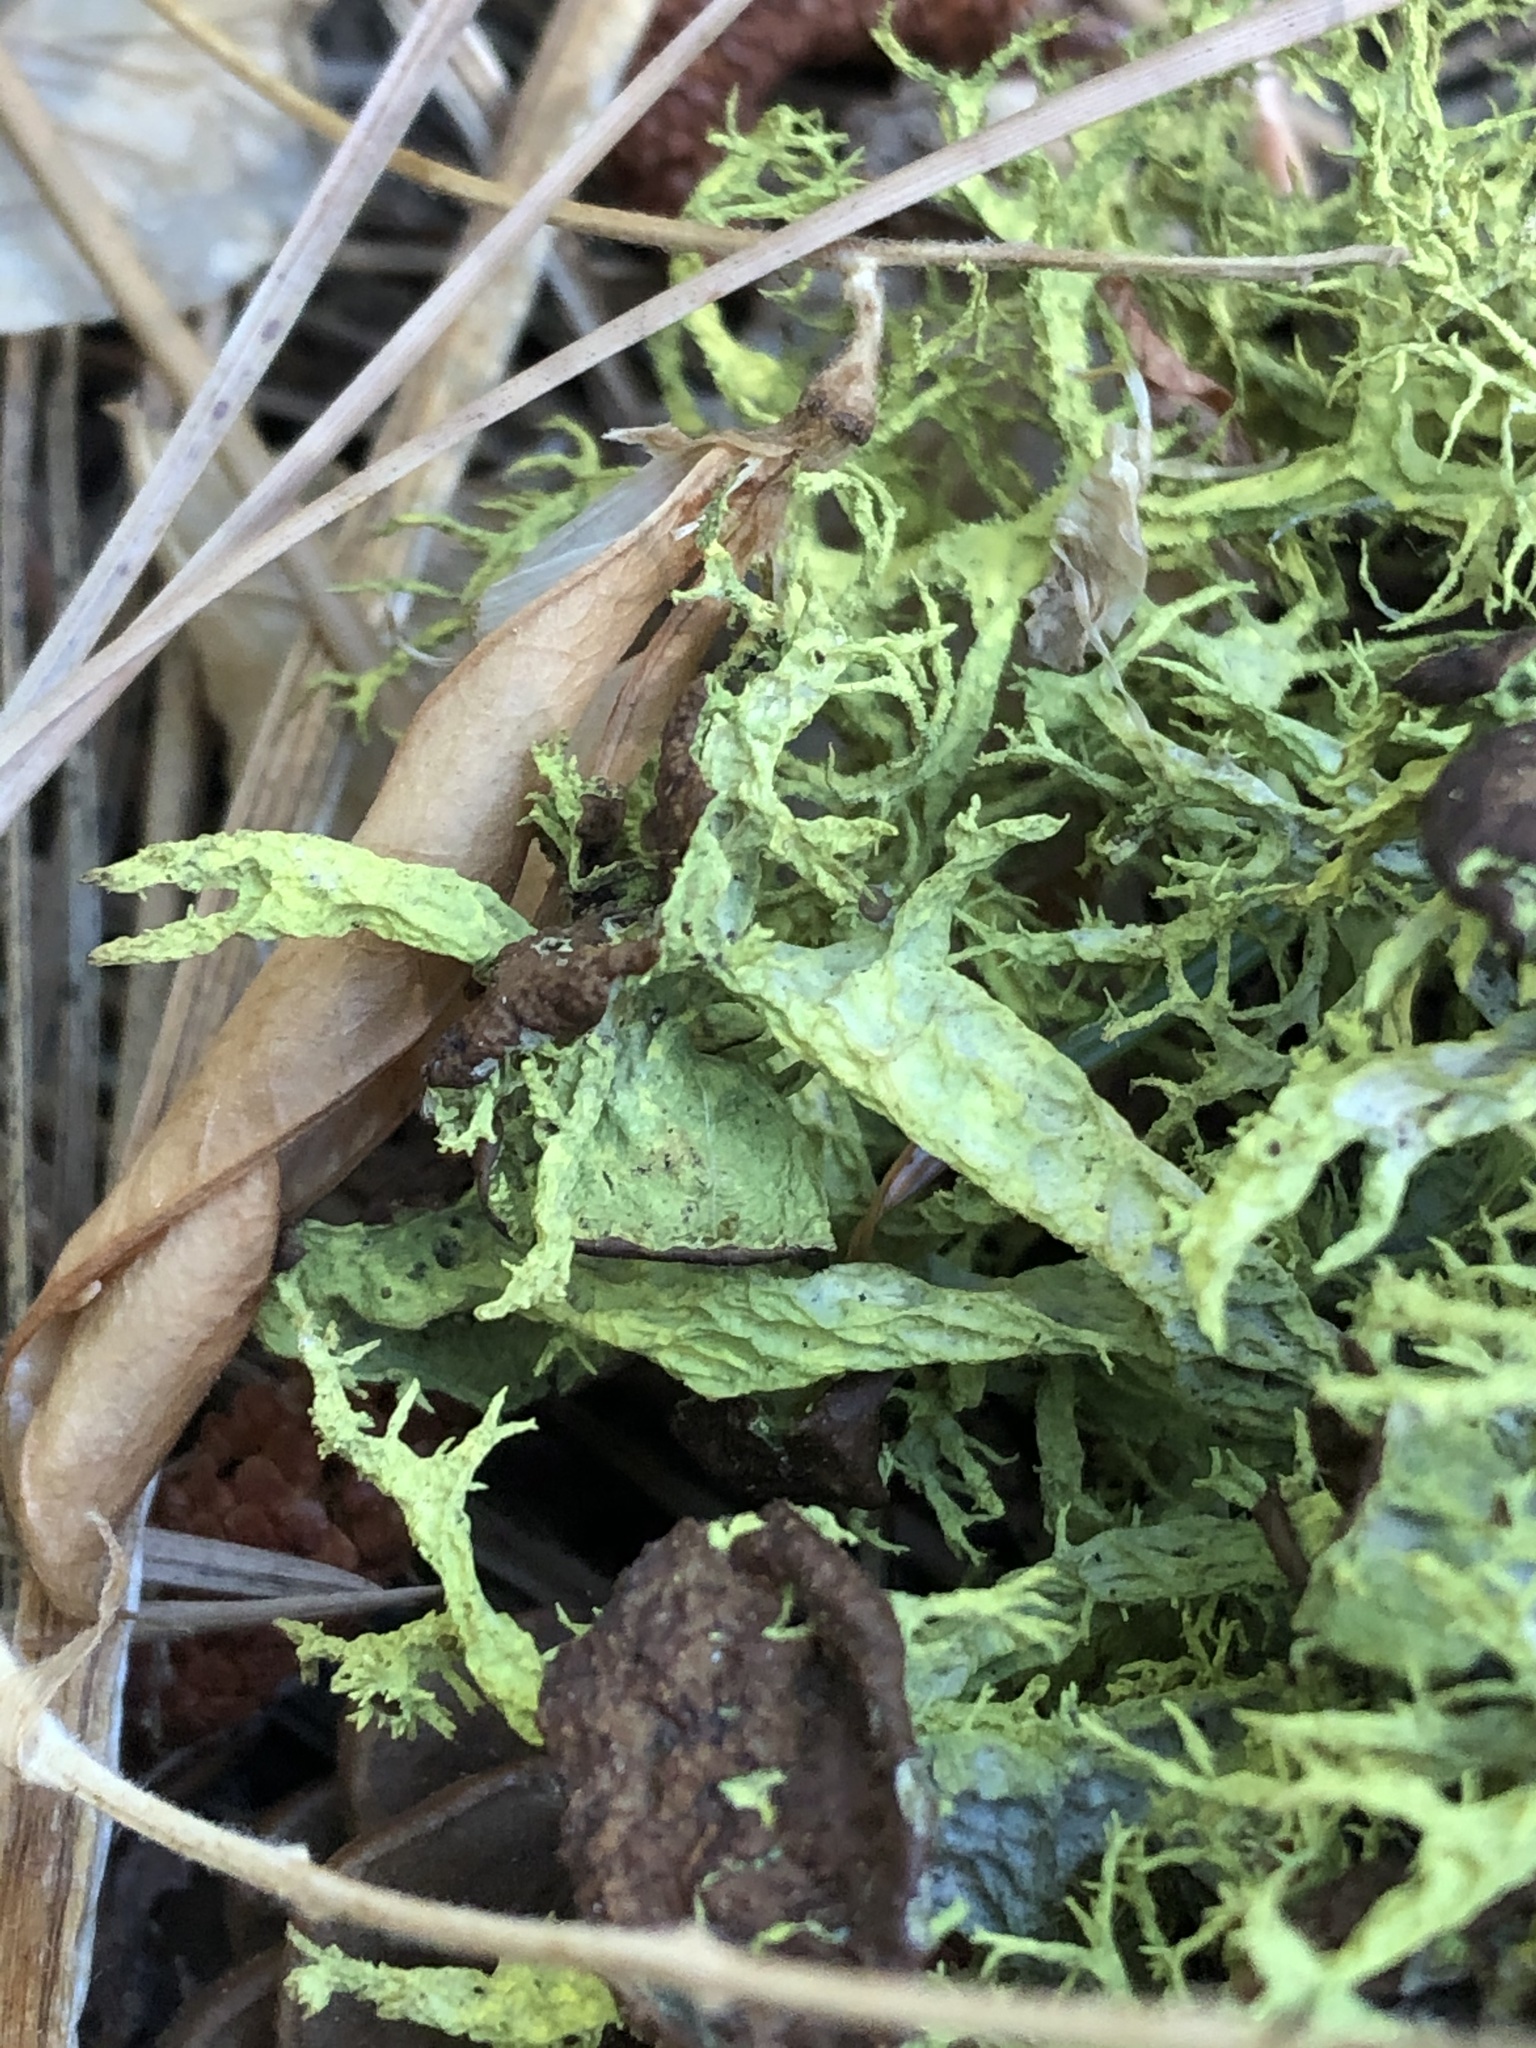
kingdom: Fungi
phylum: Ascomycota
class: Lecanoromycetes
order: Lecanorales
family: Parmeliaceae
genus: Letharia
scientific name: Letharia columbiana
